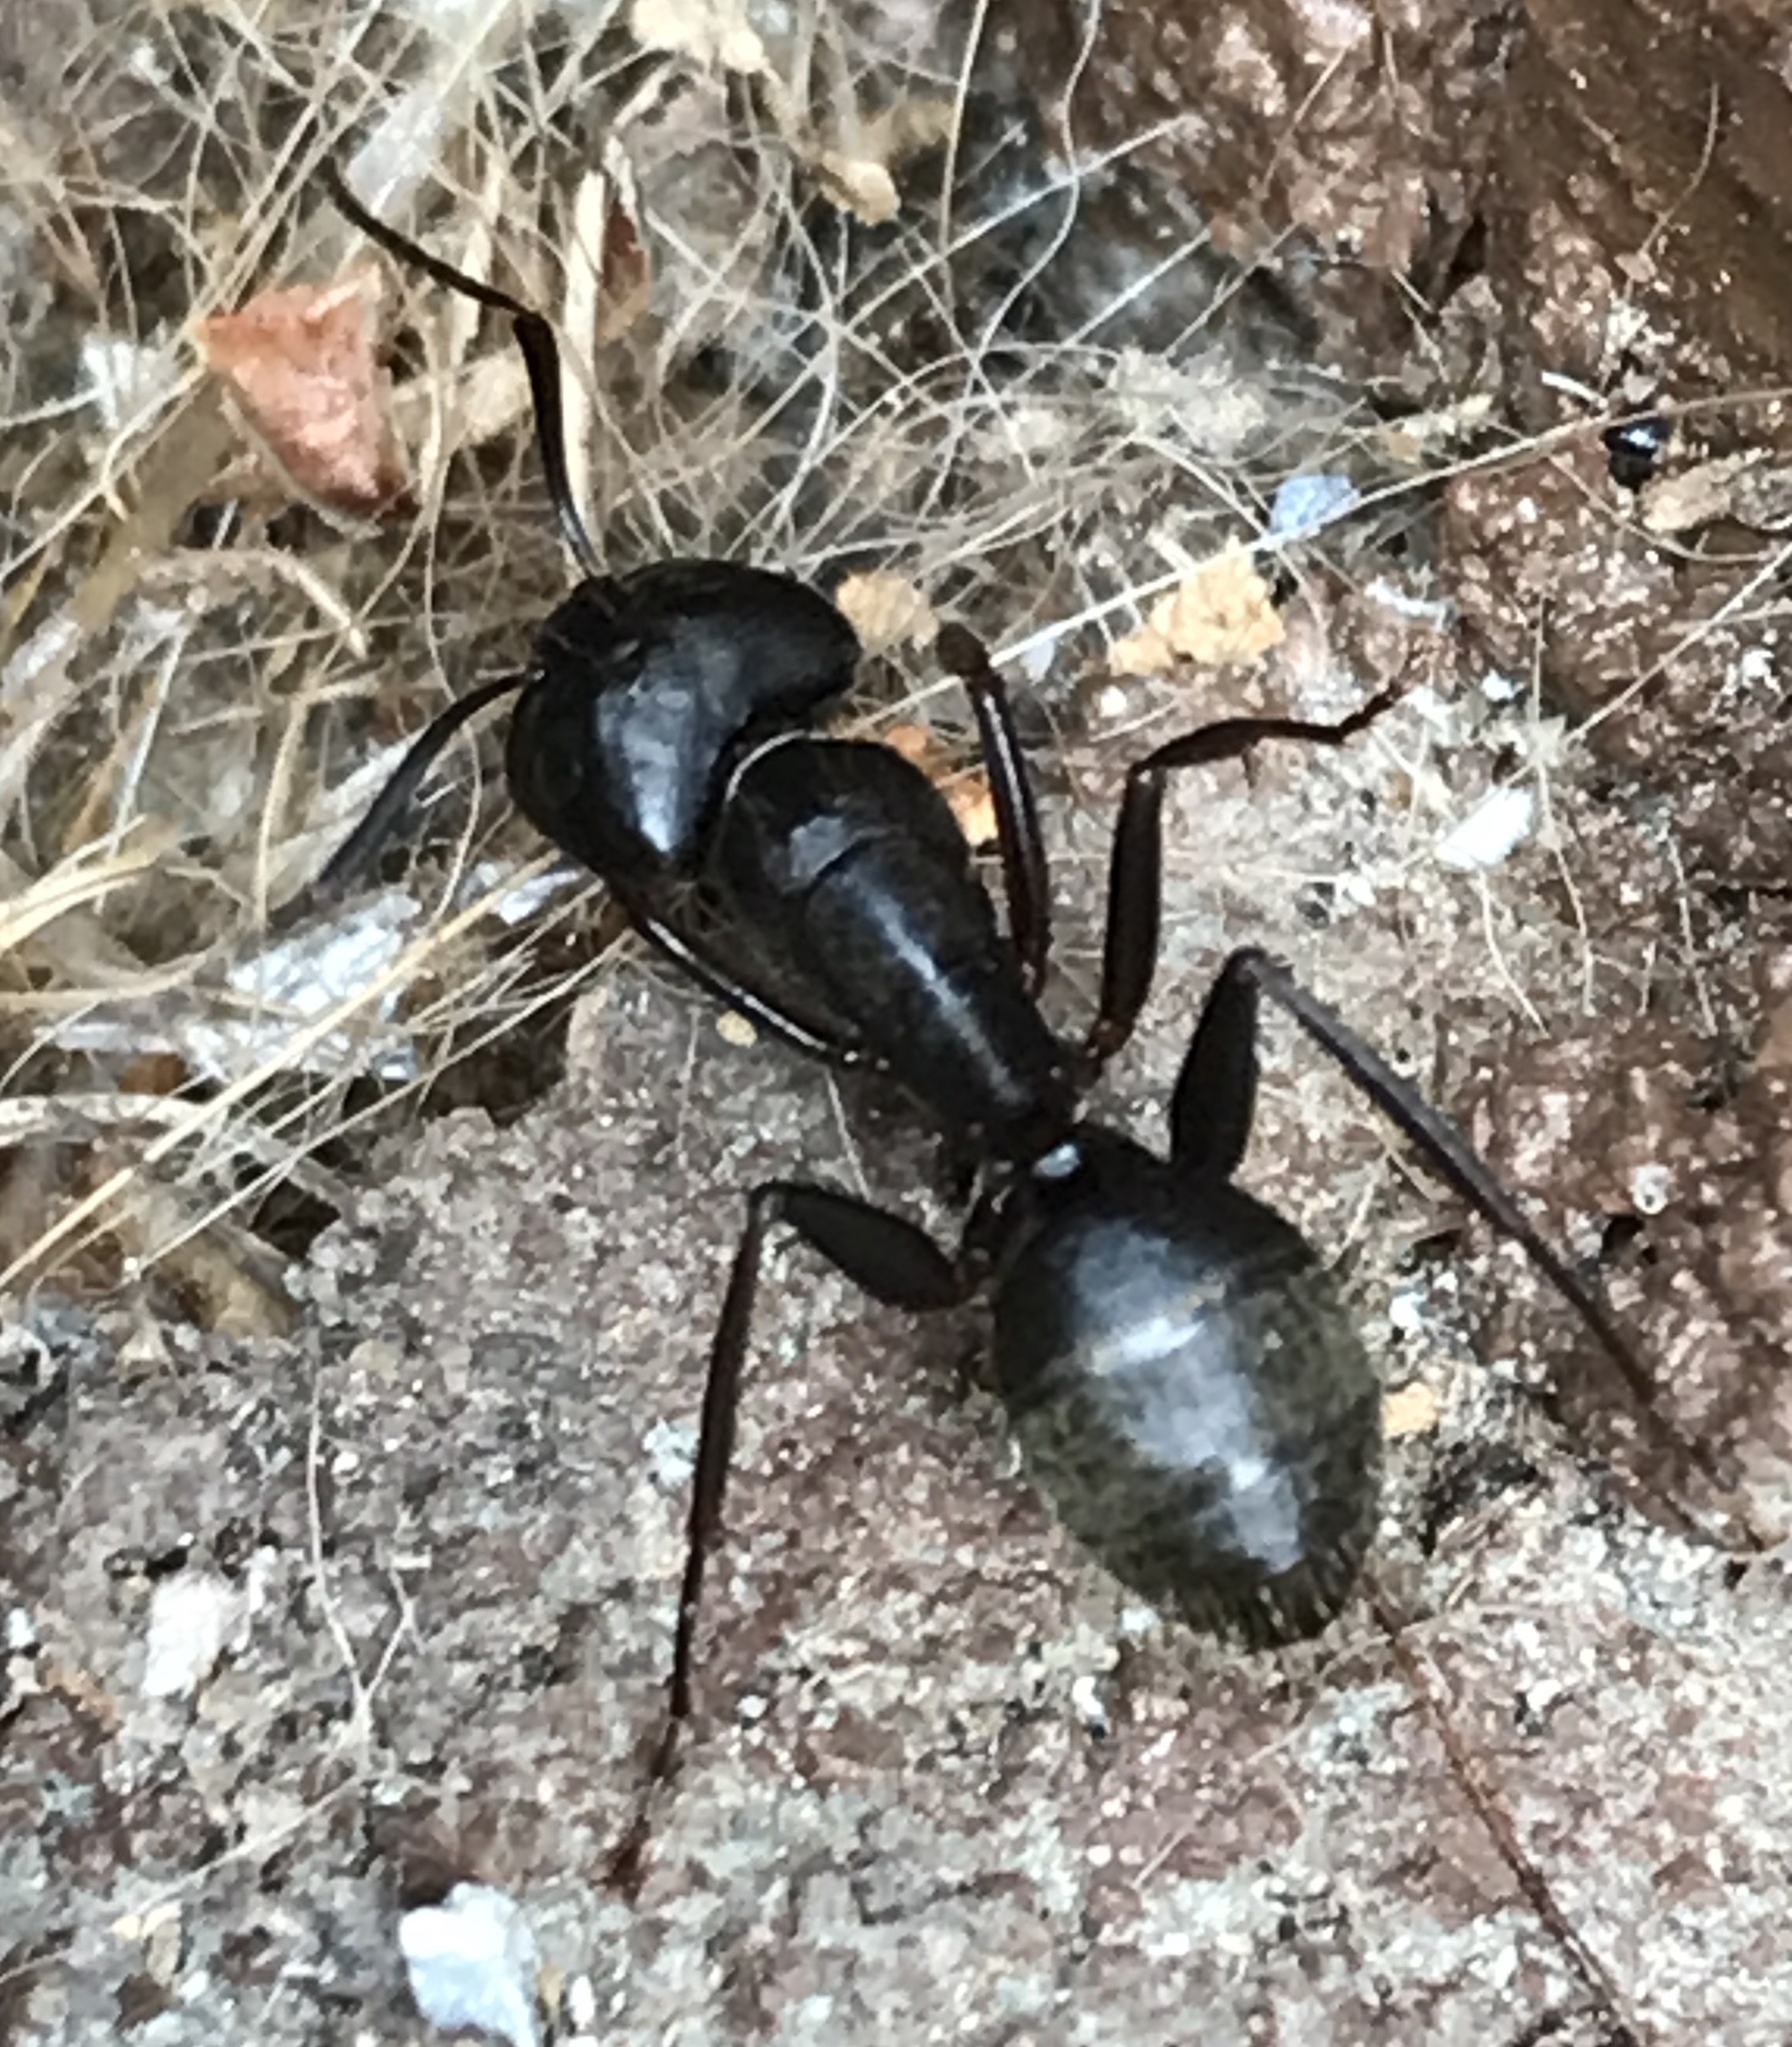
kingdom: Animalia
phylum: Arthropoda
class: Insecta
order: Hymenoptera
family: Formicidae
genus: Camponotus
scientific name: Camponotus pennsylvanicus
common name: Black carpenter ant
